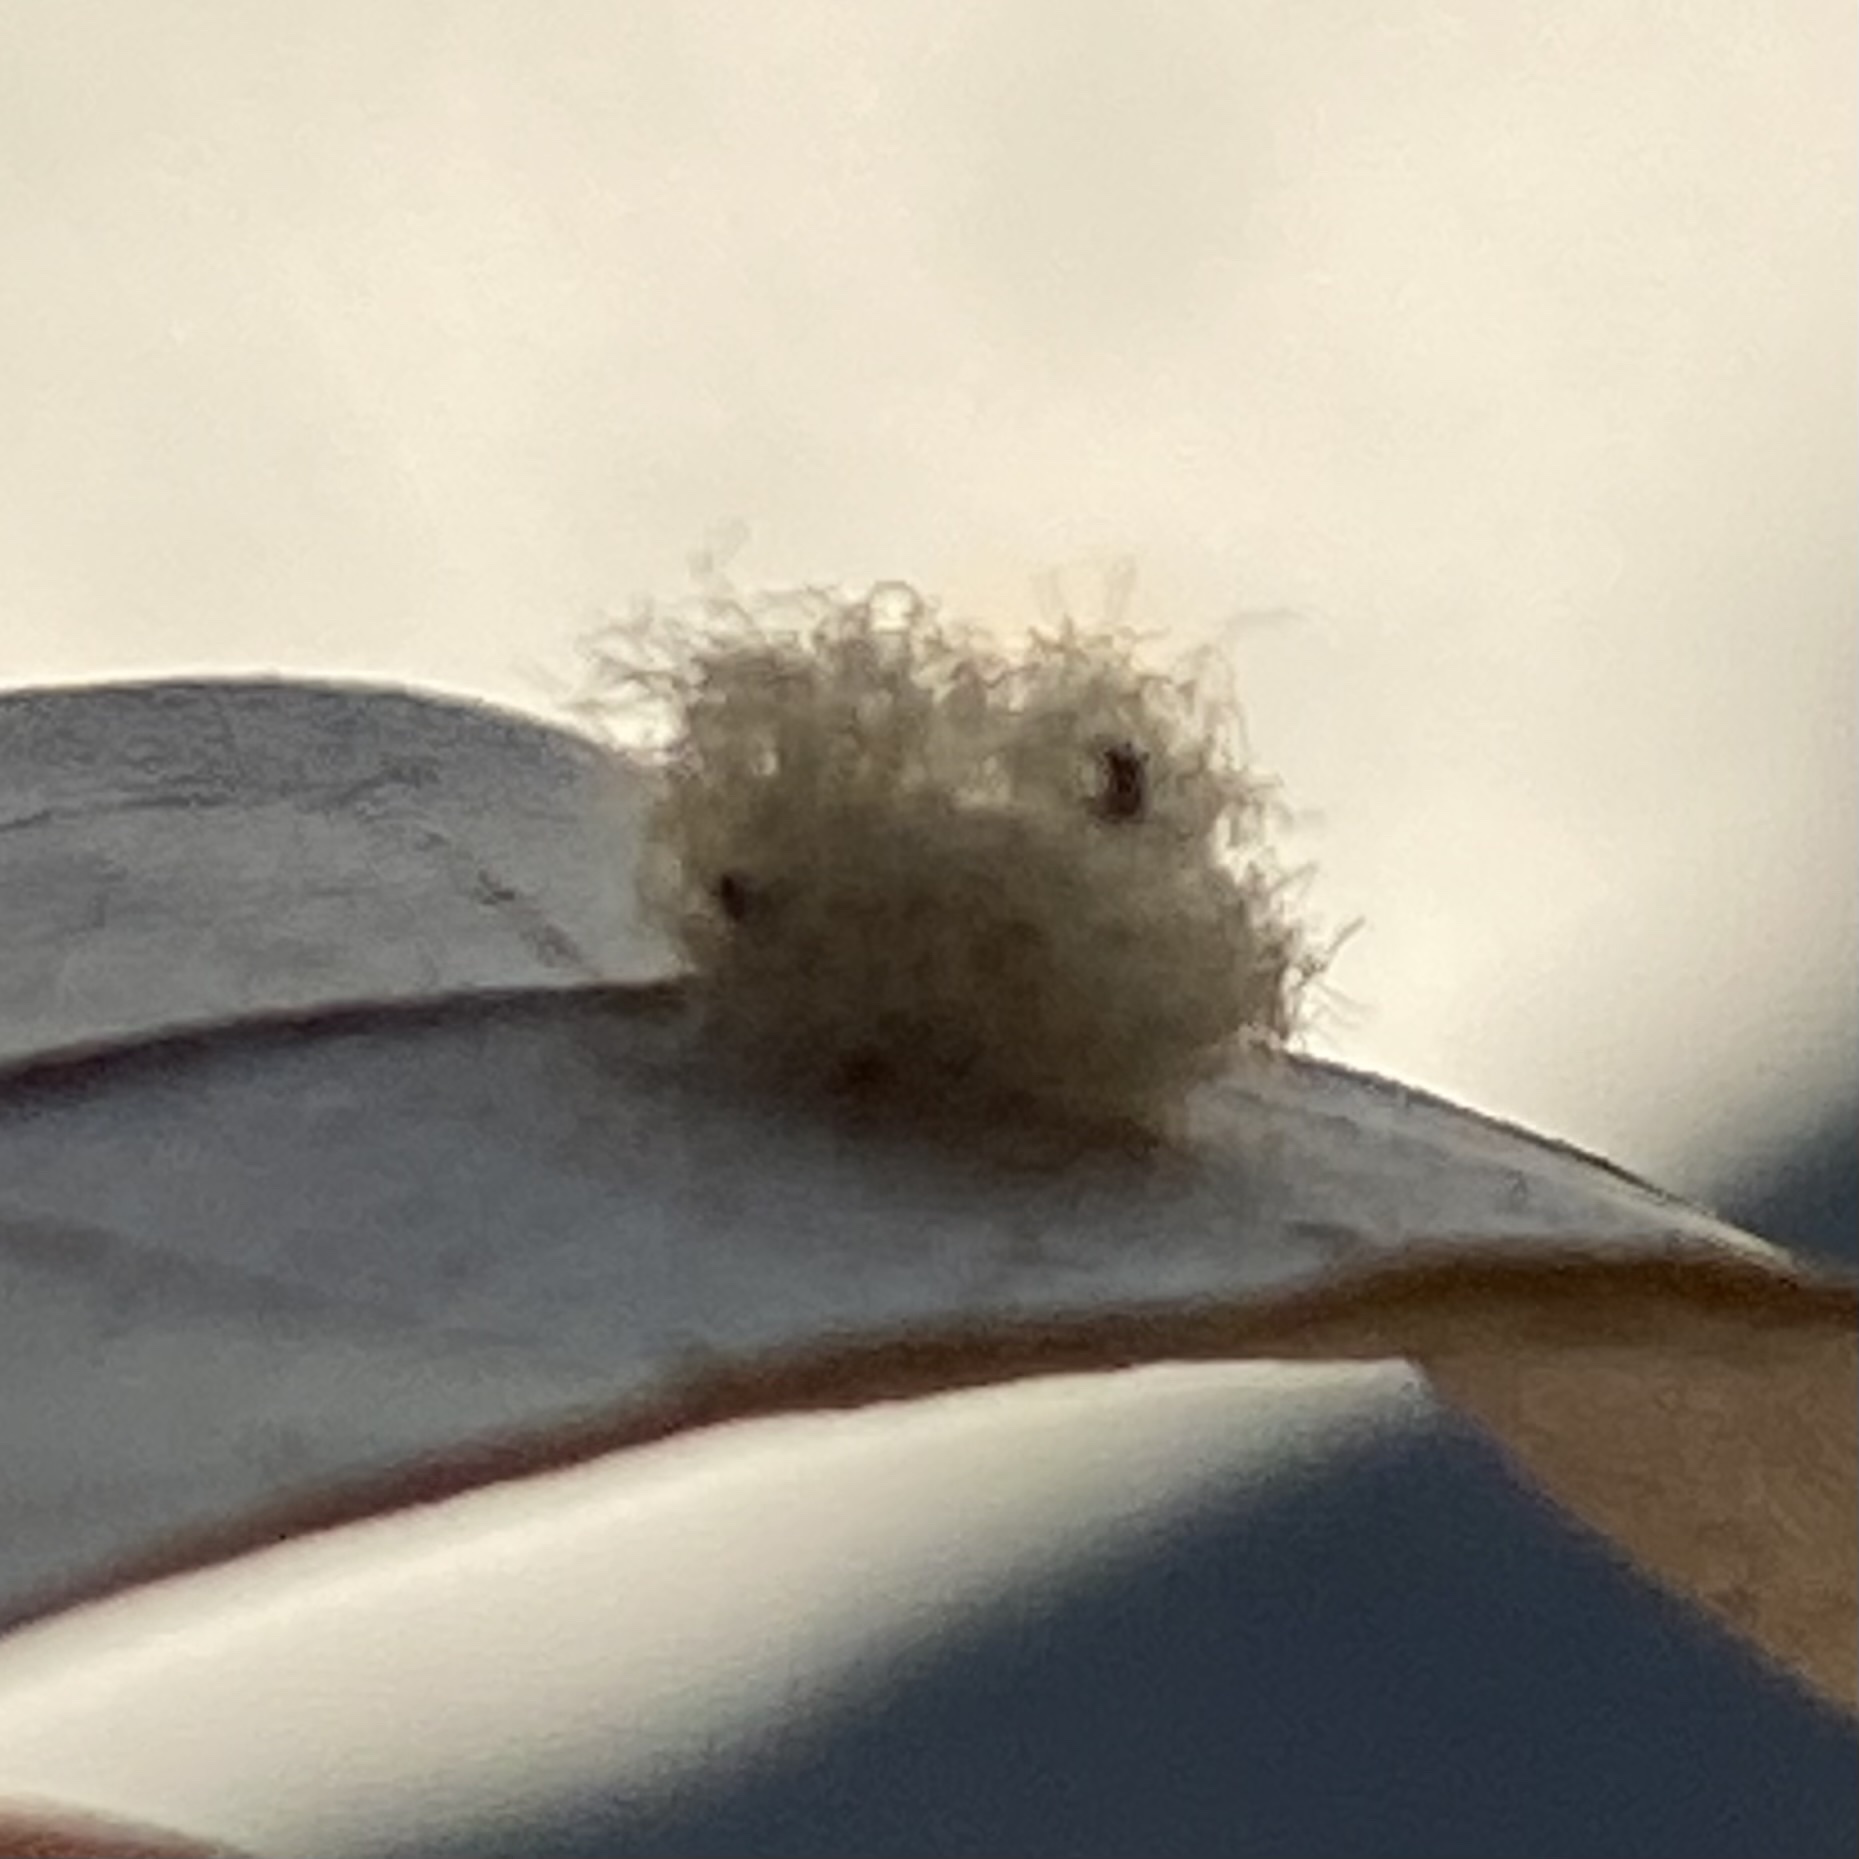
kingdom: Animalia
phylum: Arthropoda
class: Insecta
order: Hymenoptera
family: Cynipidae
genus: Andricus
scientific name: Andricus Druon quercuslanigerum
